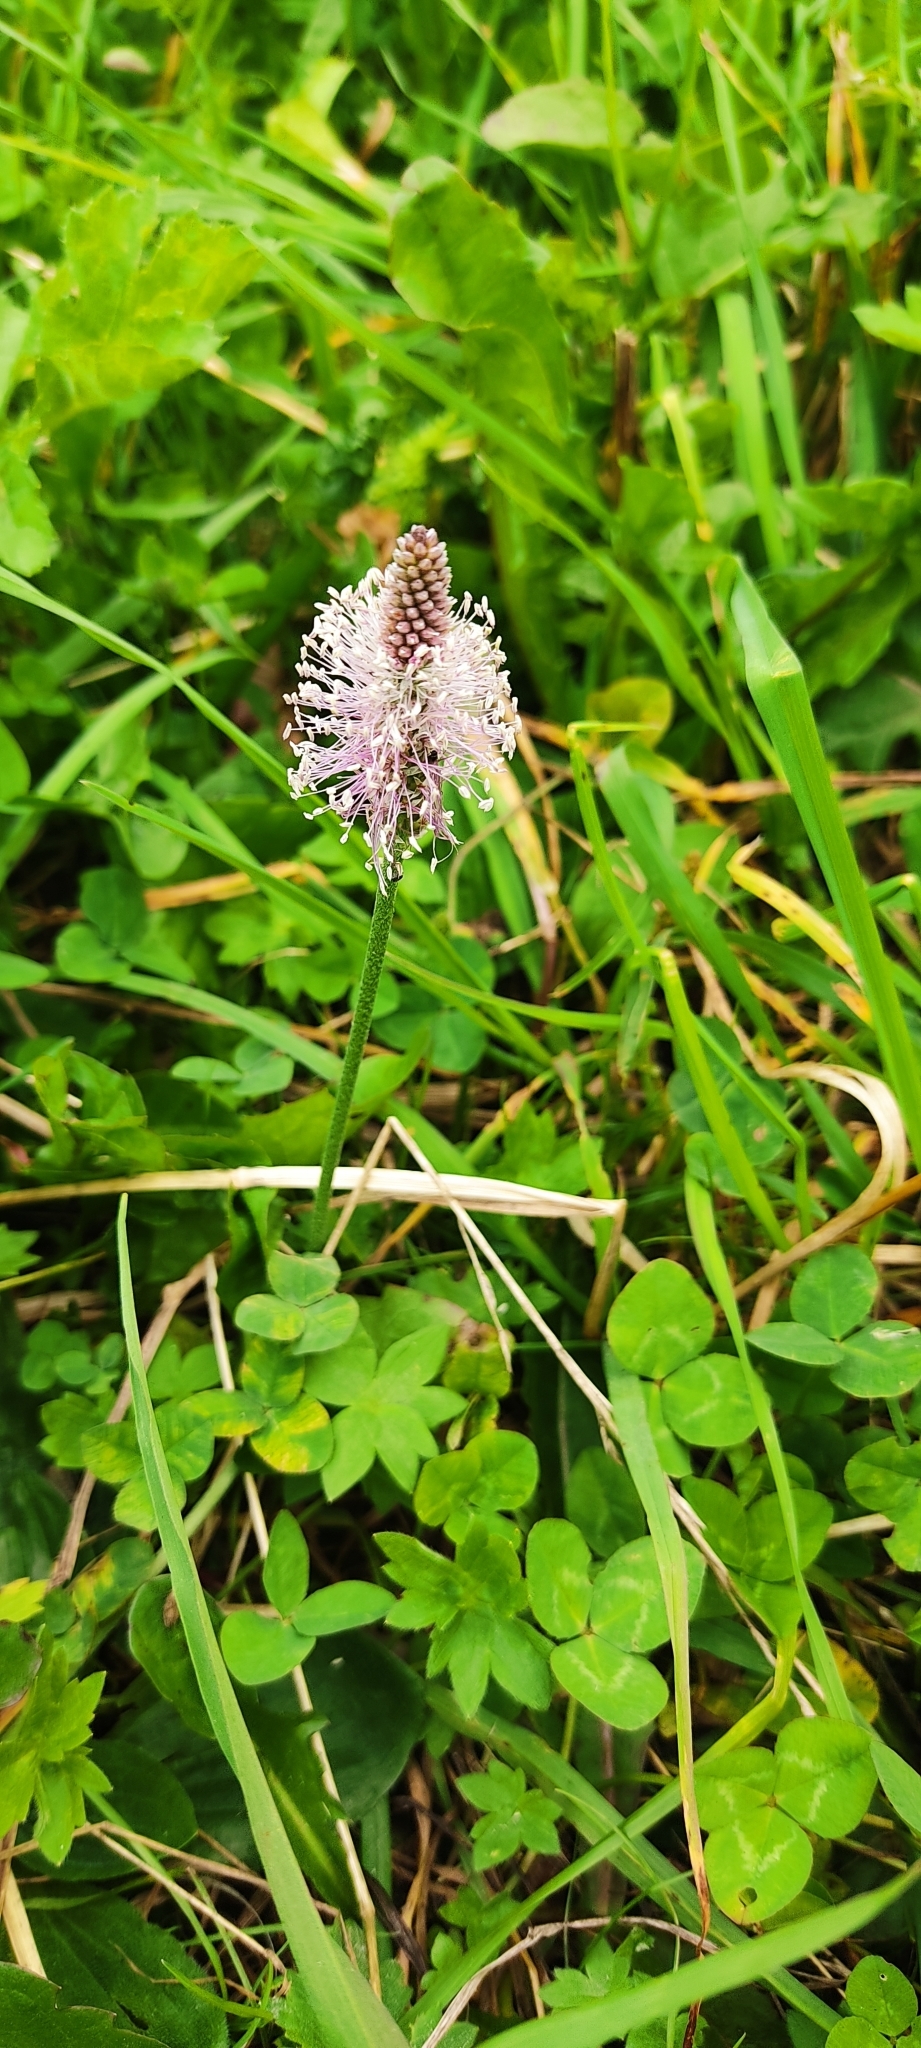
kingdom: Plantae
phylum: Tracheophyta
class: Magnoliopsida
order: Lamiales
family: Plantaginaceae
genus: Plantago
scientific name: Plantago media
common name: Hoary plantain
